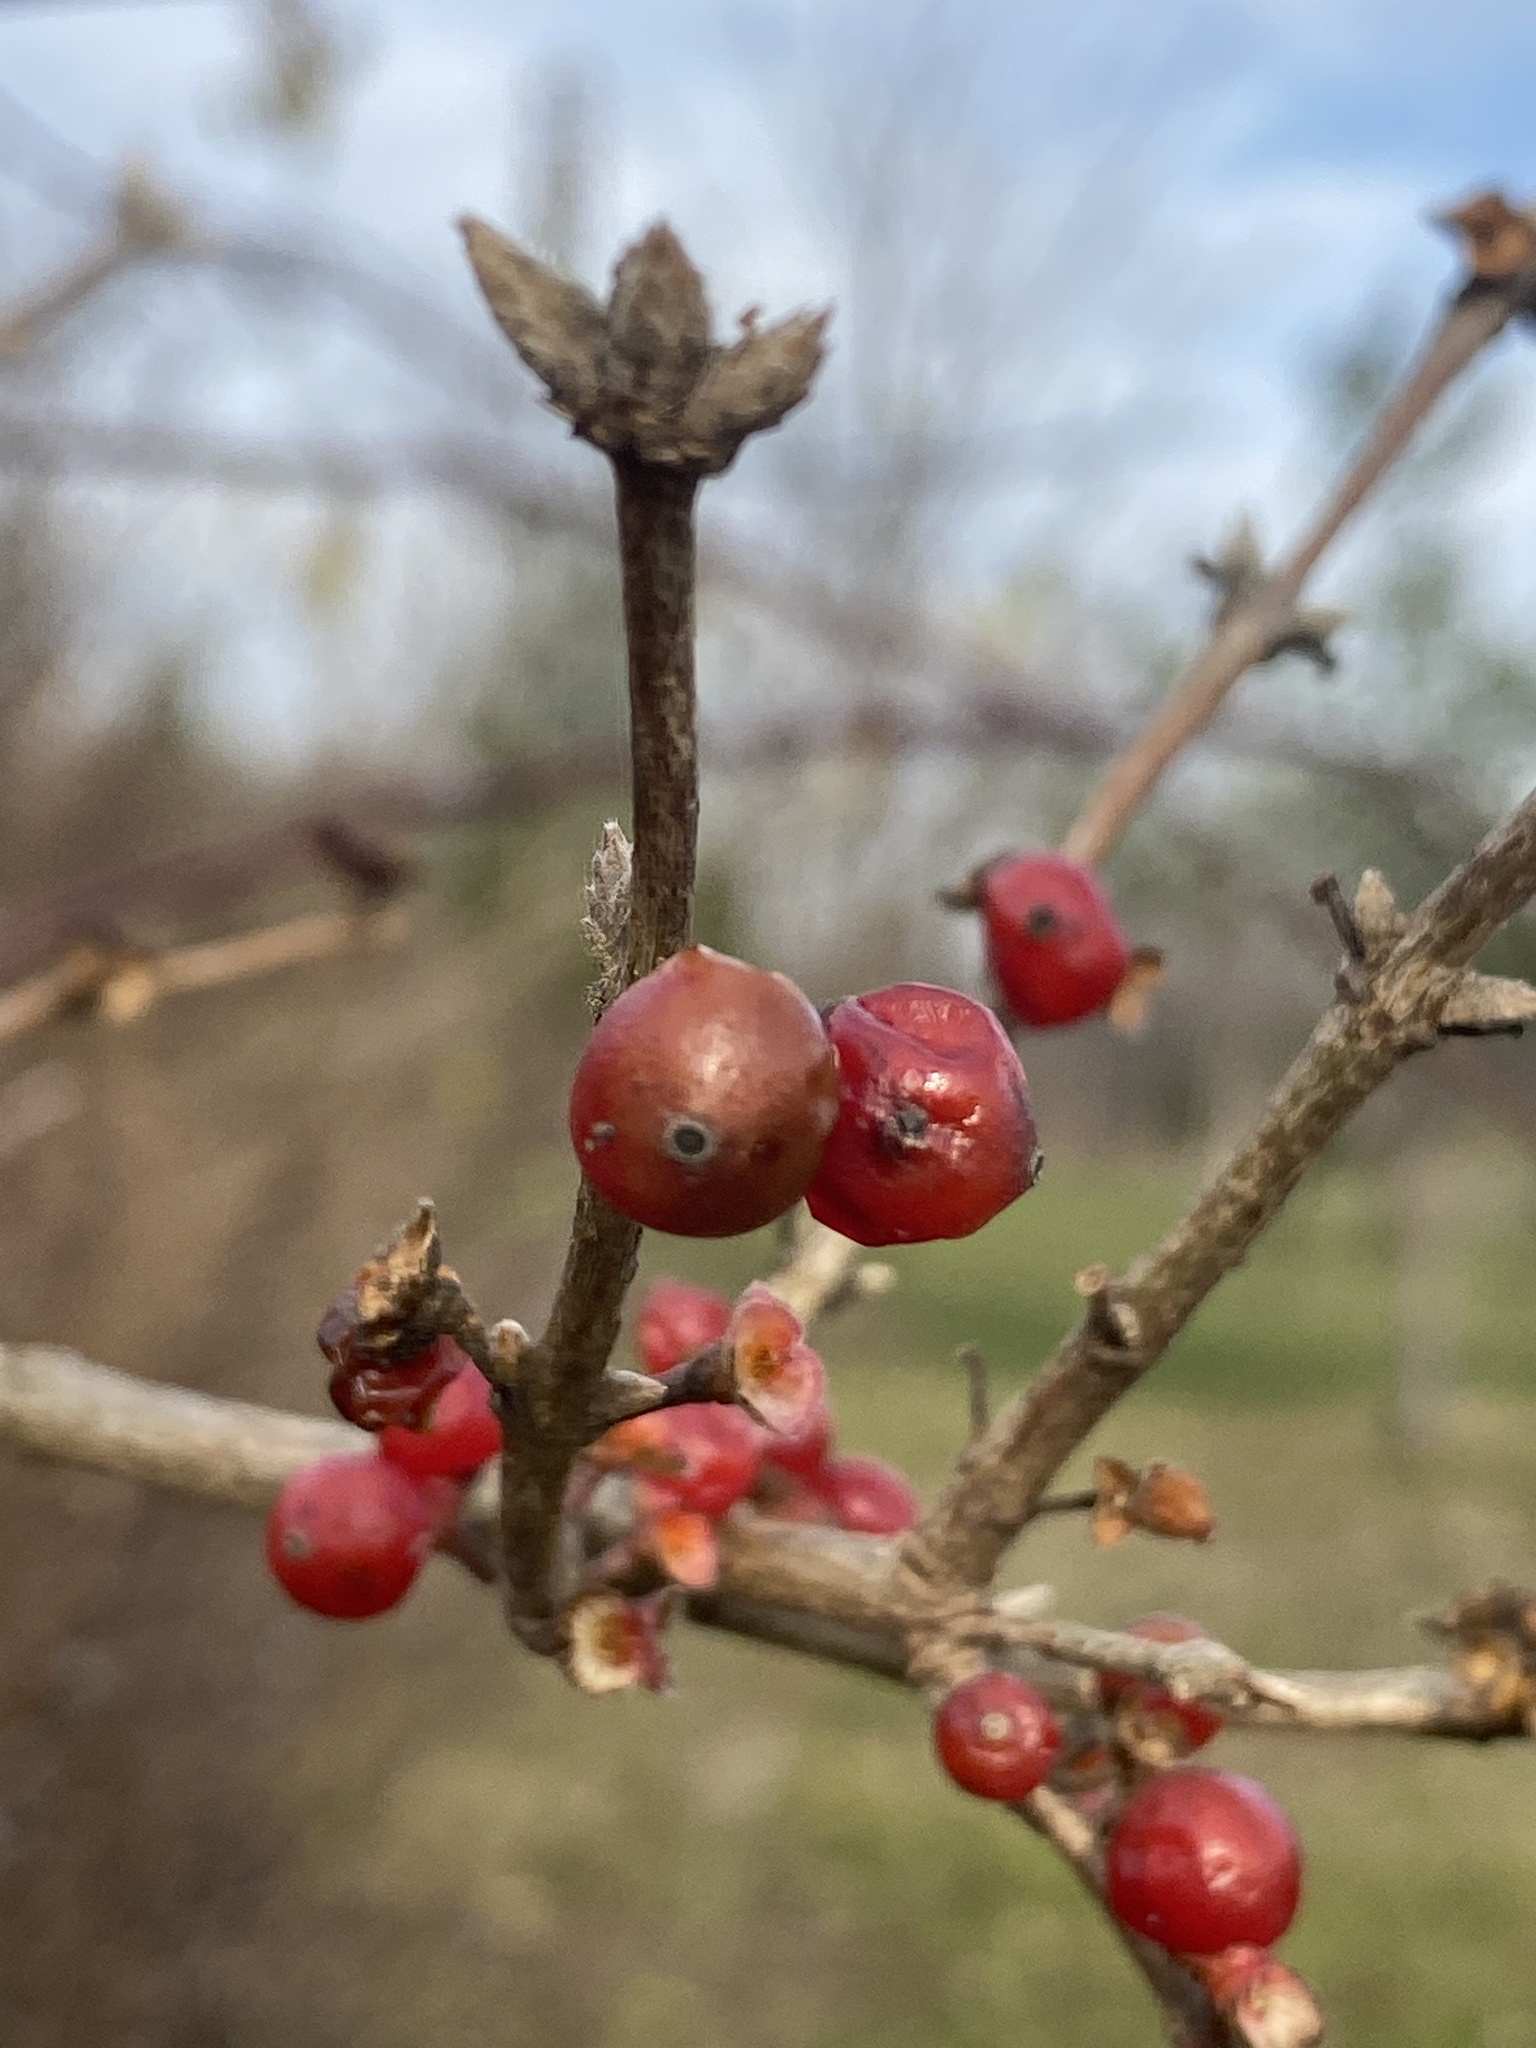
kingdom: Plantae
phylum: Tracheophyta
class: Magnoliopsida
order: Dipsacales
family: Caprifoliaceae
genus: Lonicera
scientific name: Lonicera maackii
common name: Amur honeysuckle
